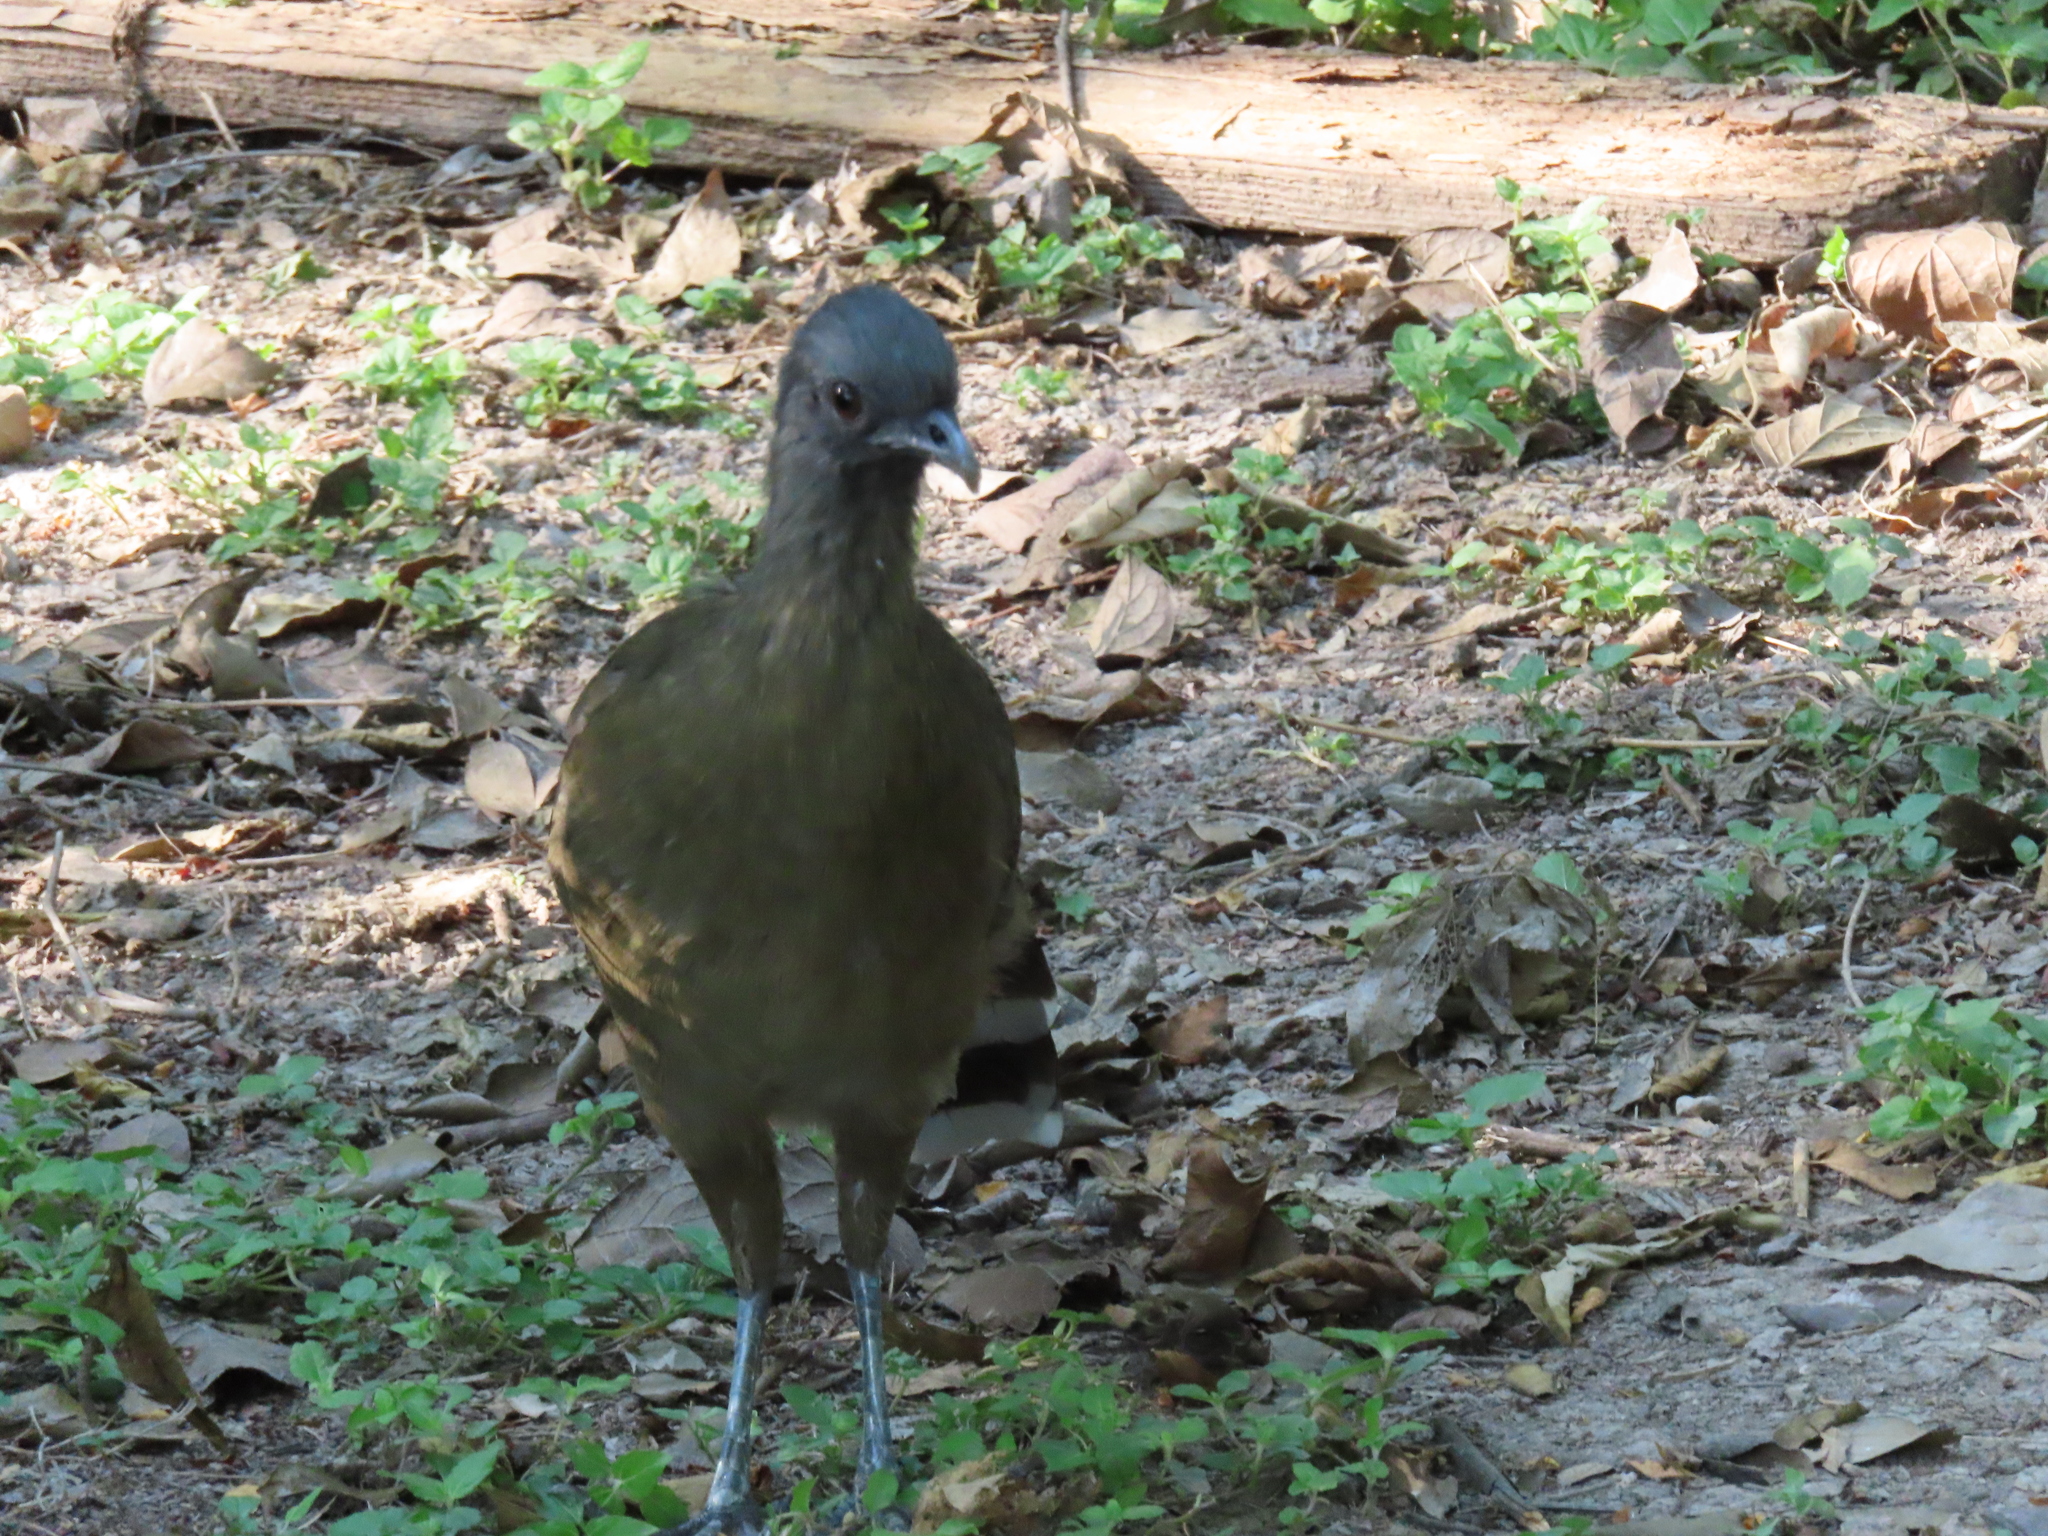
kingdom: Animalia
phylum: Chordata
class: Aves
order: Galliformes
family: Cracidae
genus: Ortalis
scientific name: Ortalis vetula
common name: Plain chachalaca
